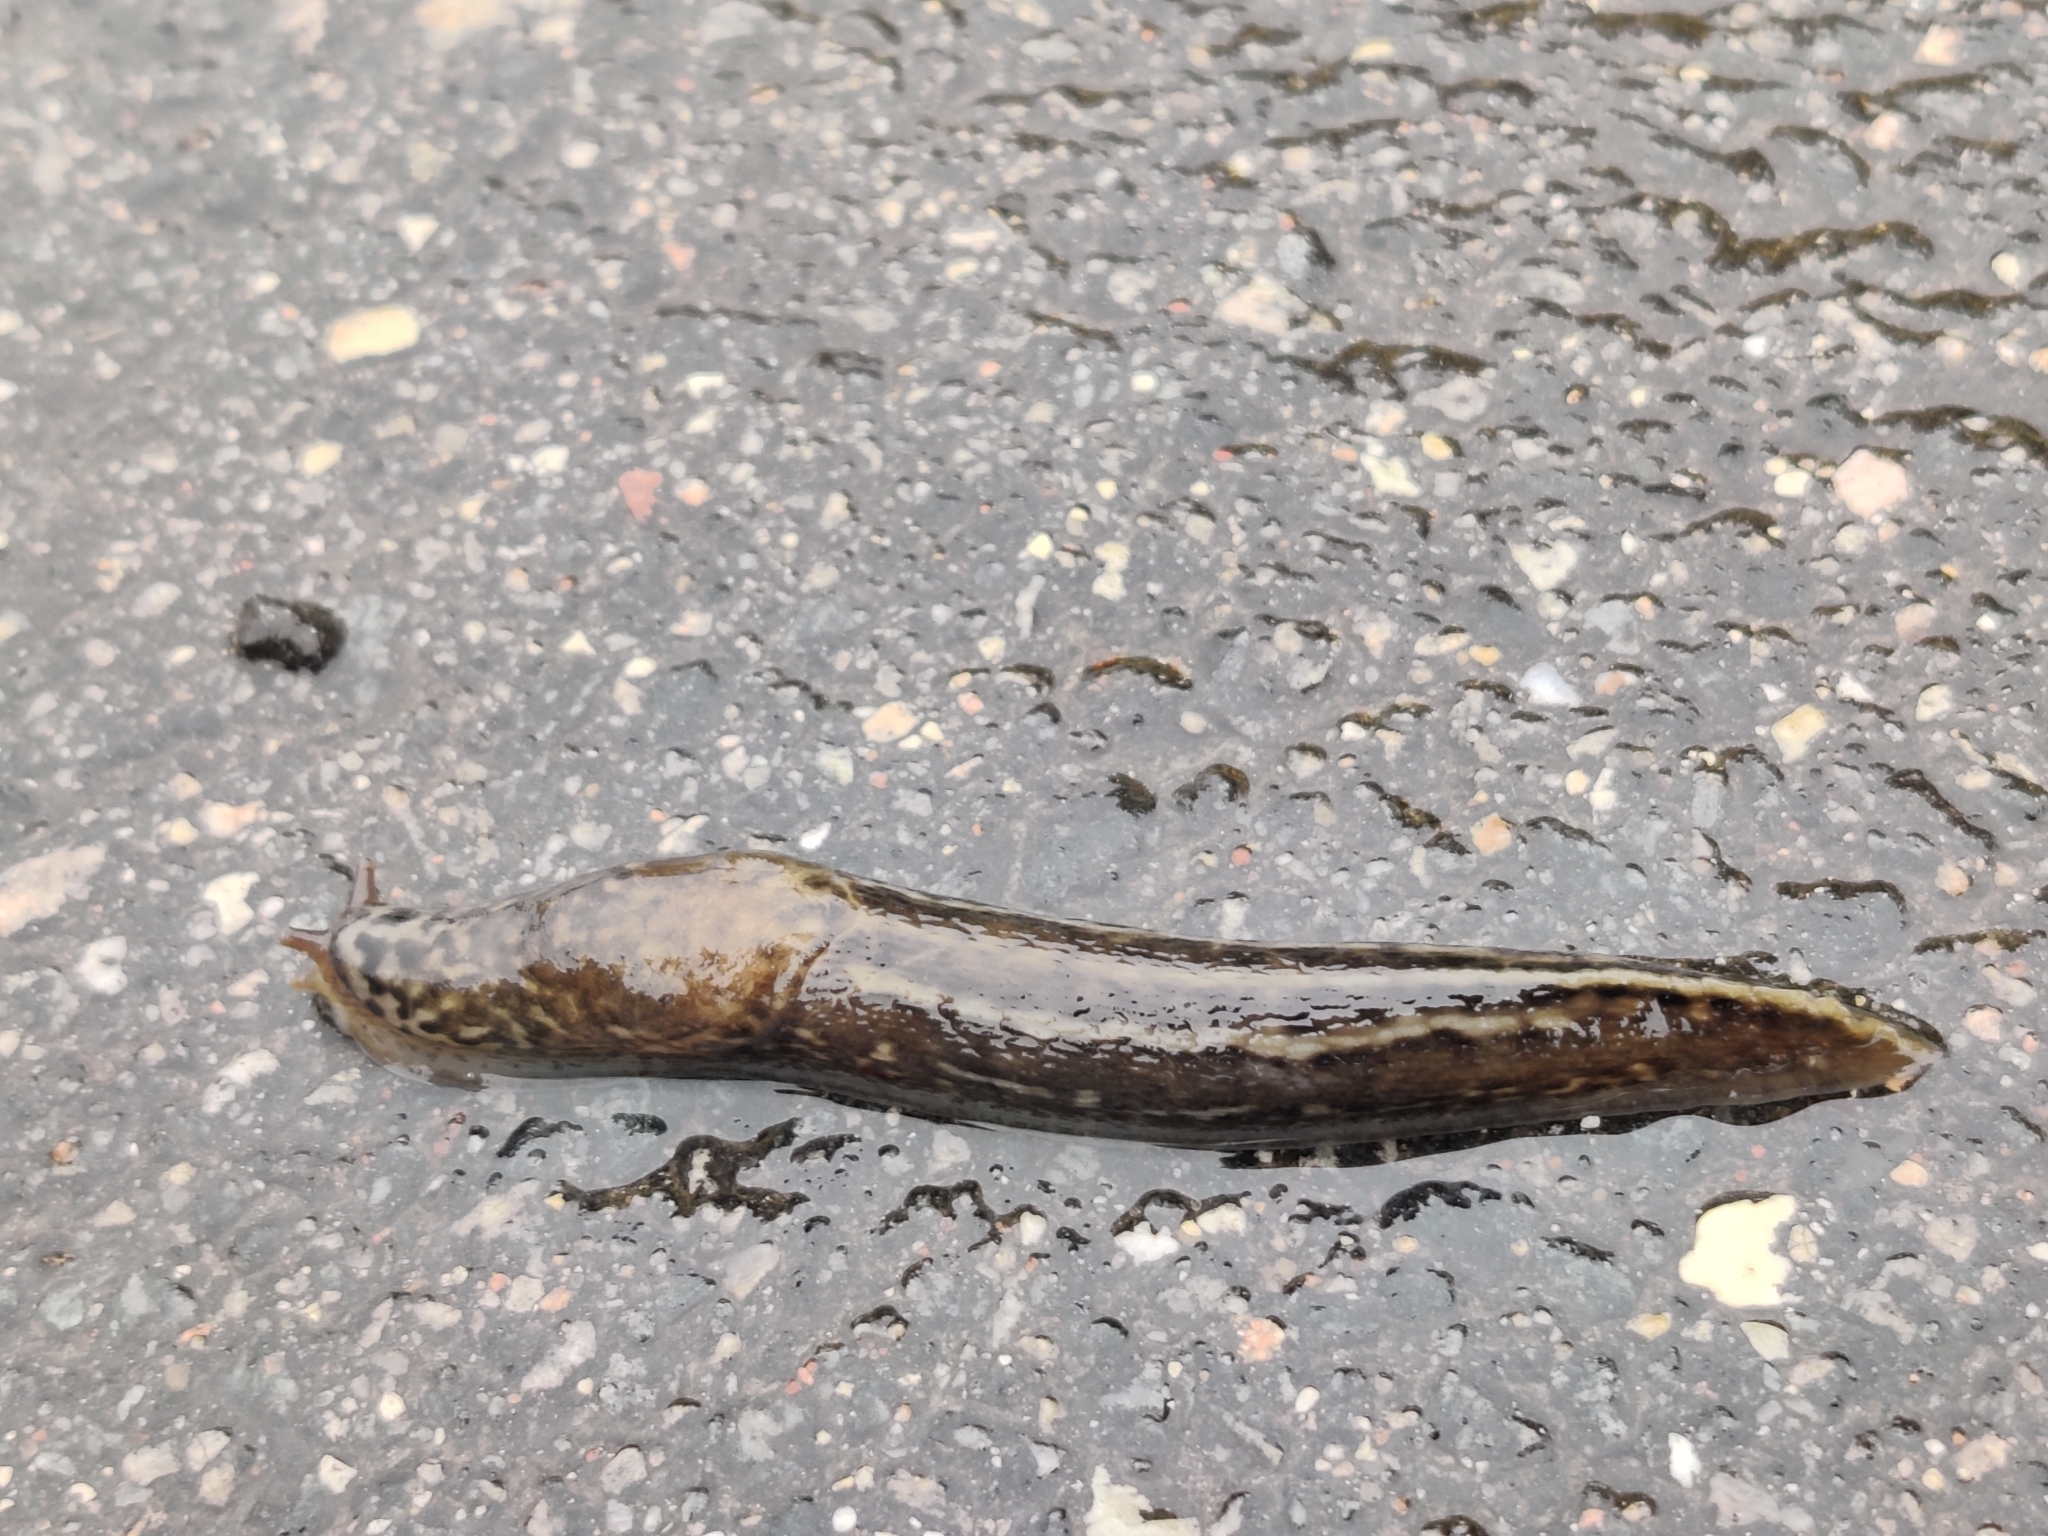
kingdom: Animalia
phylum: Mollusca
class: Gastropoda
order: Stylommatophora
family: Limacidae
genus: Limax
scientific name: Limax maximus
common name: Great grey slug
